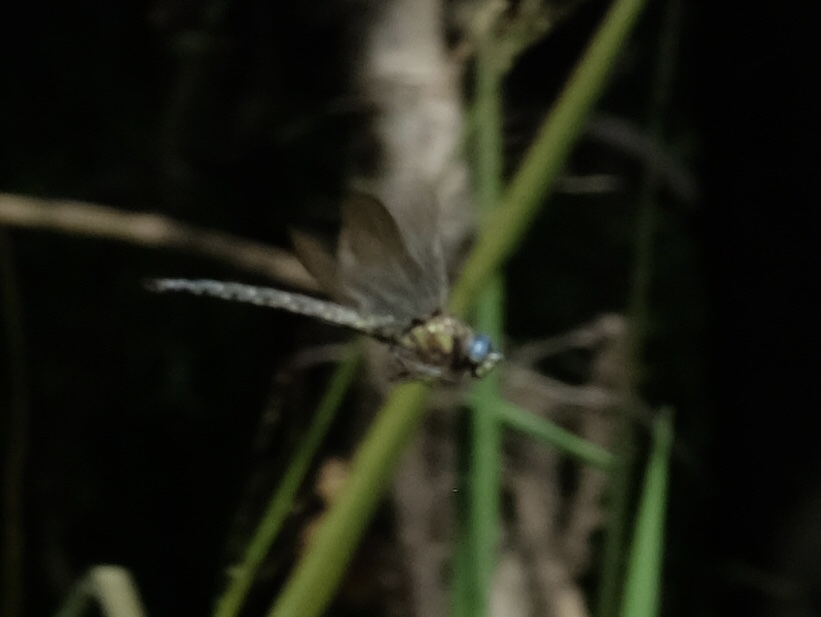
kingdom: Animalia
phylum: Arthropoda
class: Insecta
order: Odonata
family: Aeshnidae
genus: Nasiaeschna
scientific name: Nasiaeschna pentacantha
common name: Cyrano darner
